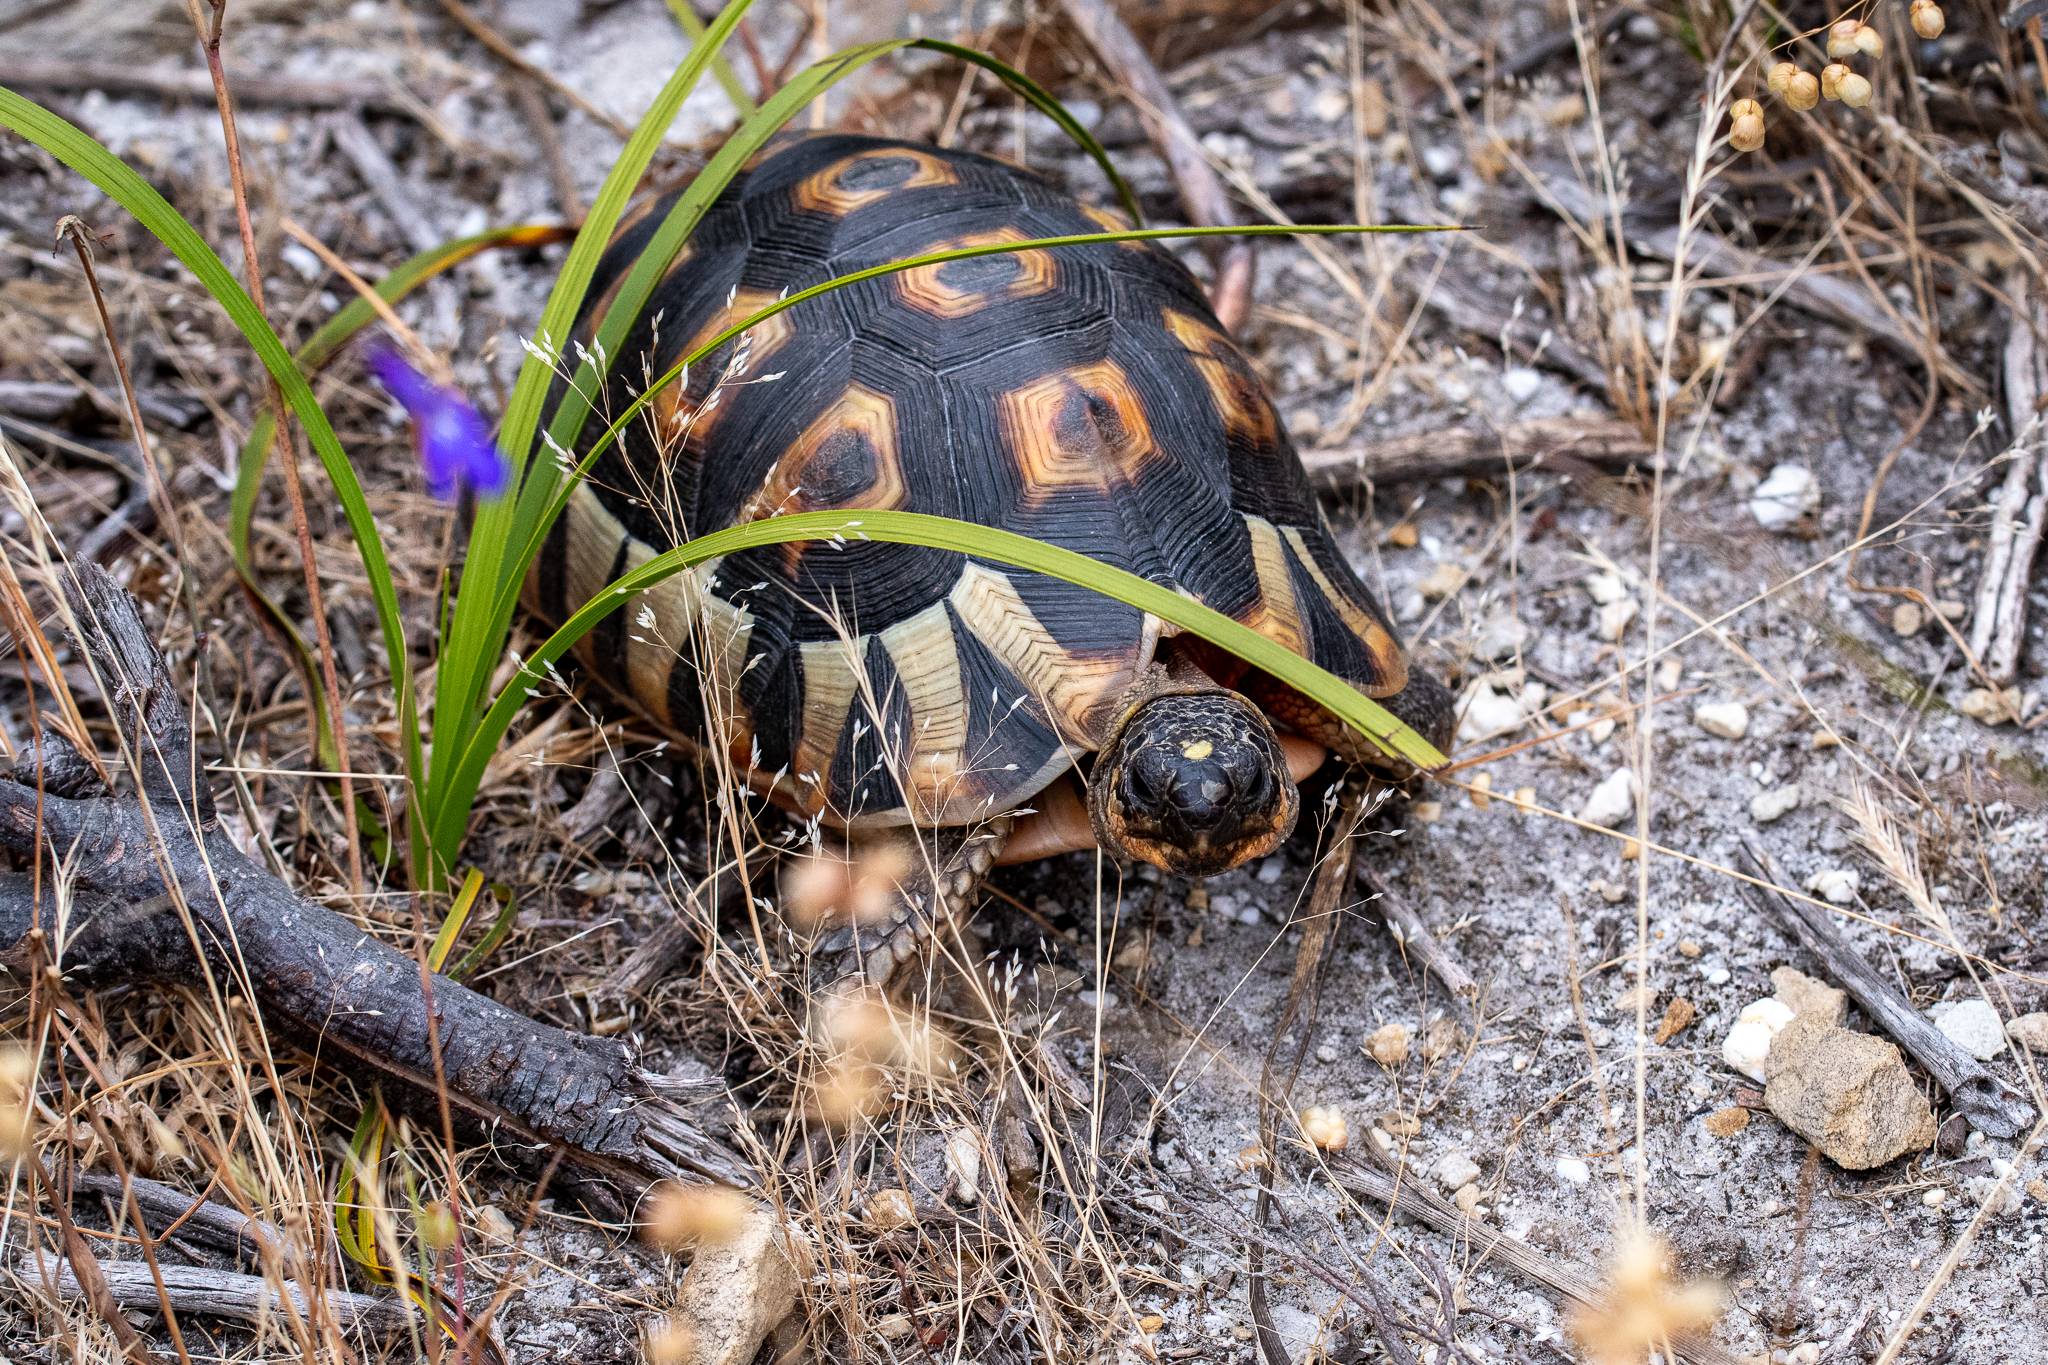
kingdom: Animalia
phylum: Chordata
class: Testudines
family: Testudinidae
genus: Chersina
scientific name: Chersina angulata
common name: South african bowsprit tortoise
